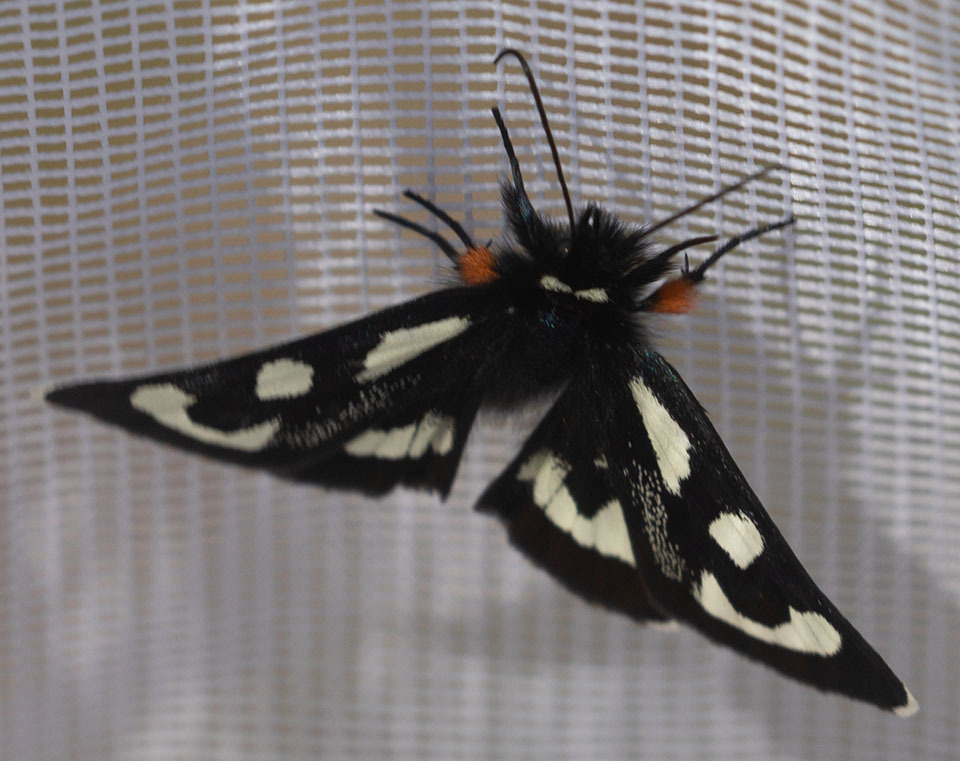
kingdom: Animalia
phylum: Arthropoda
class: Insecta
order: Lepidoptera
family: Noctuidae
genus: Alypia
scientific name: Alypia mariposa
